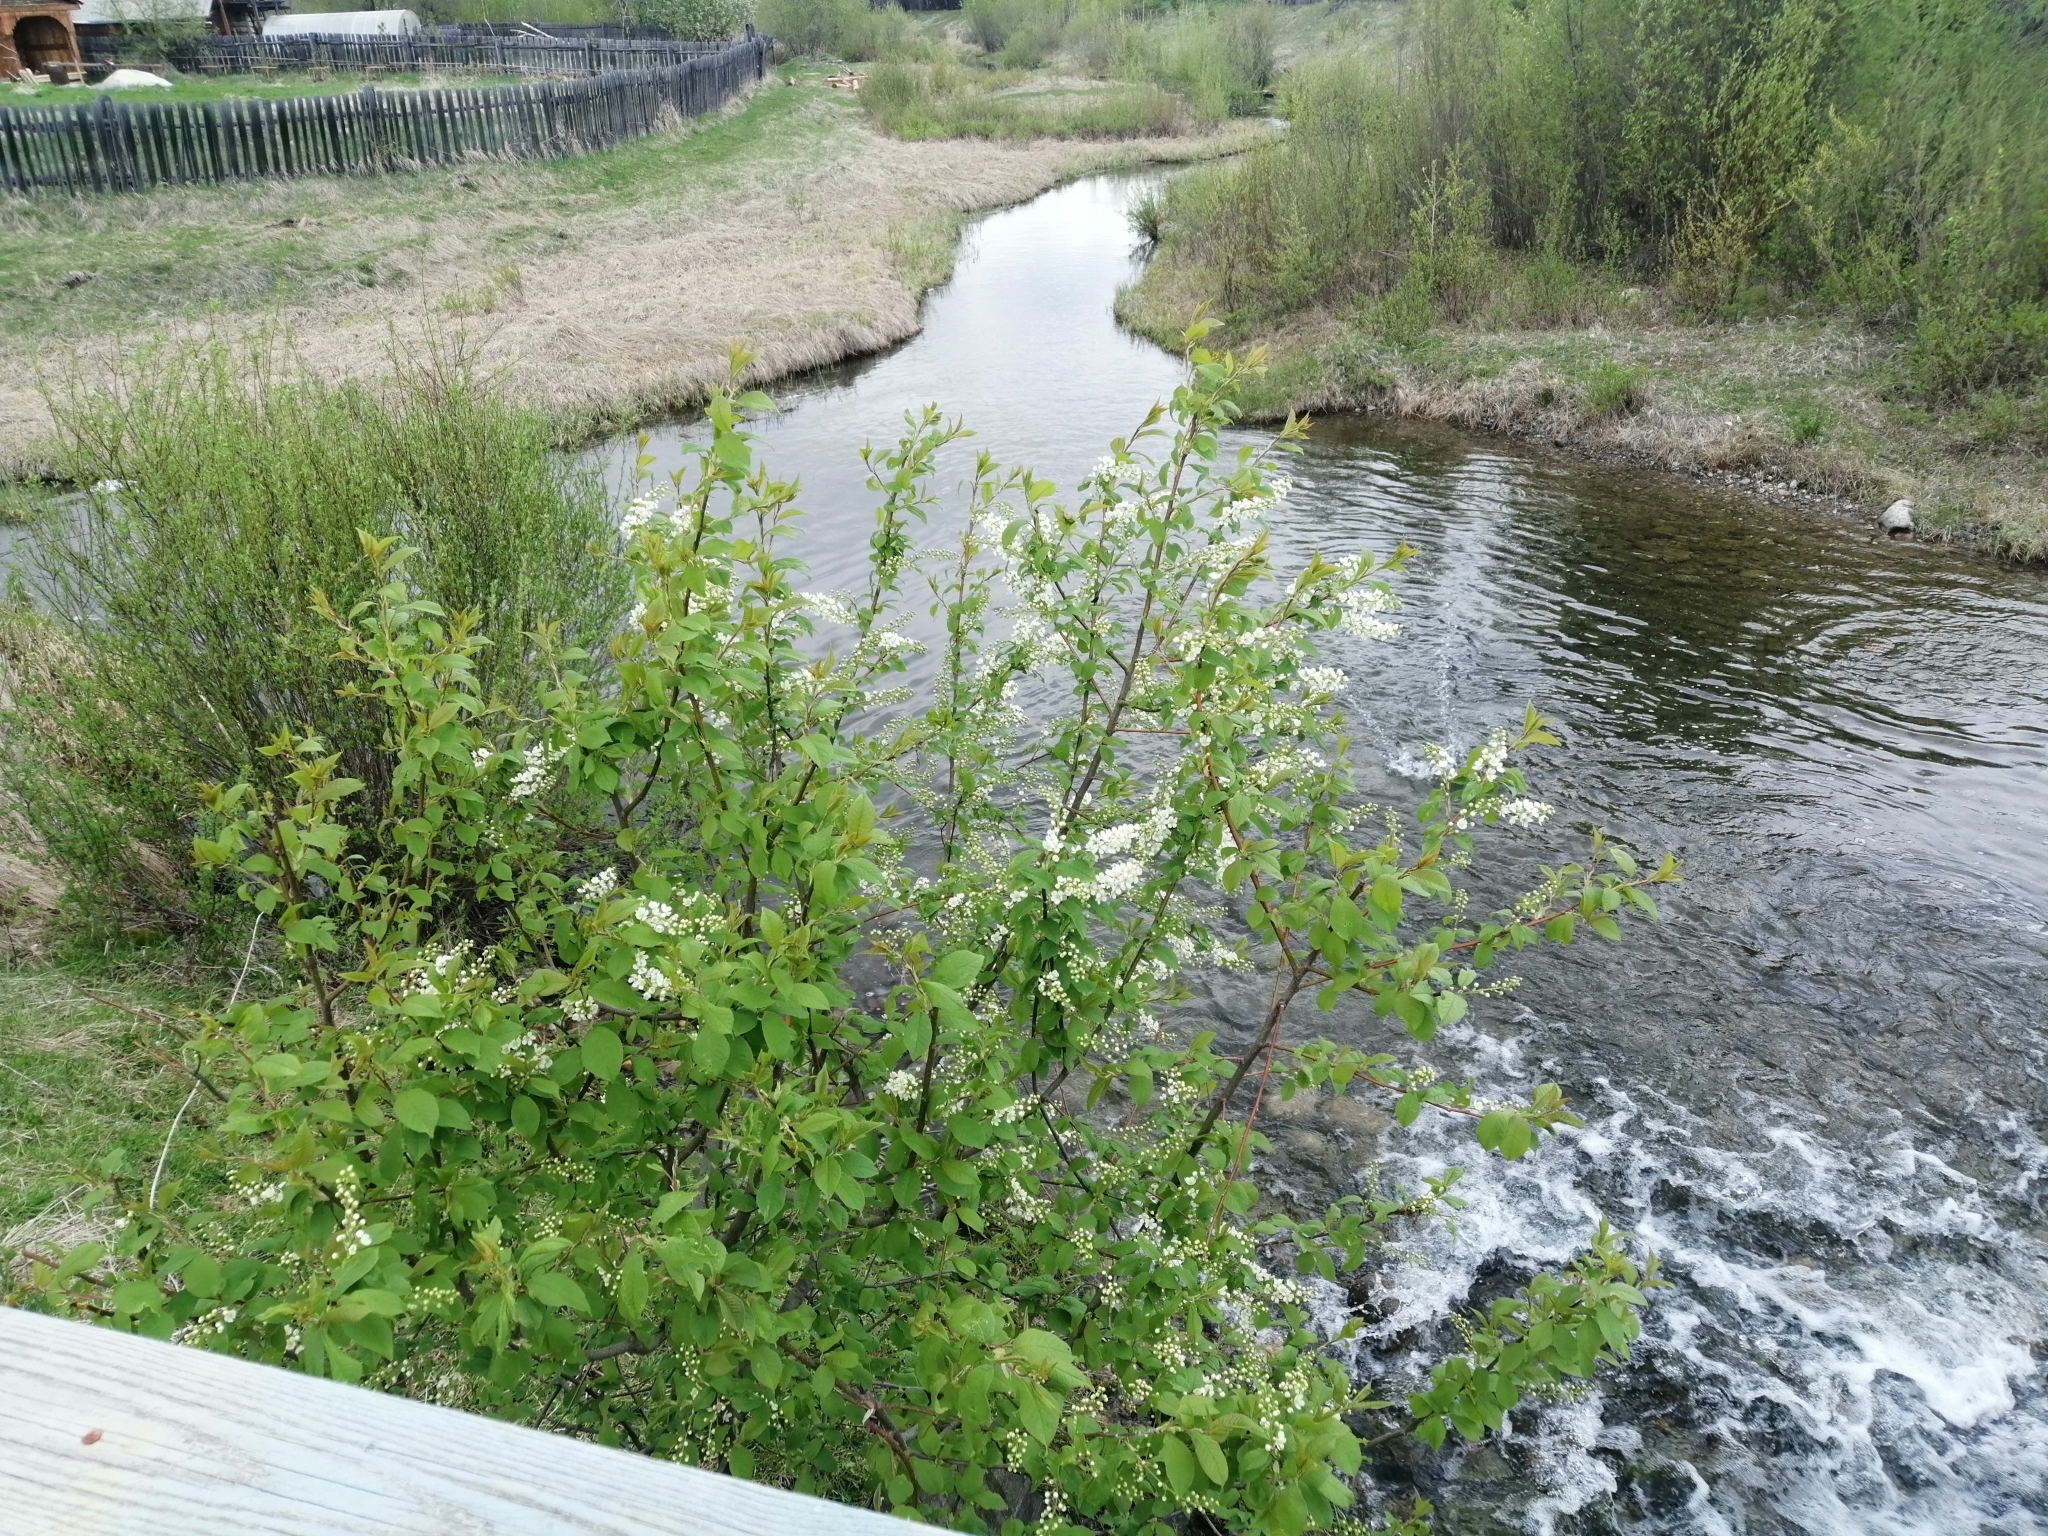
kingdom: Plantae
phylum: Tracheophyta
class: Magnoliopsida
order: Rosales
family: Rosaceae
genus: Prunus
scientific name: Prunus padus
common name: Bird cherry
